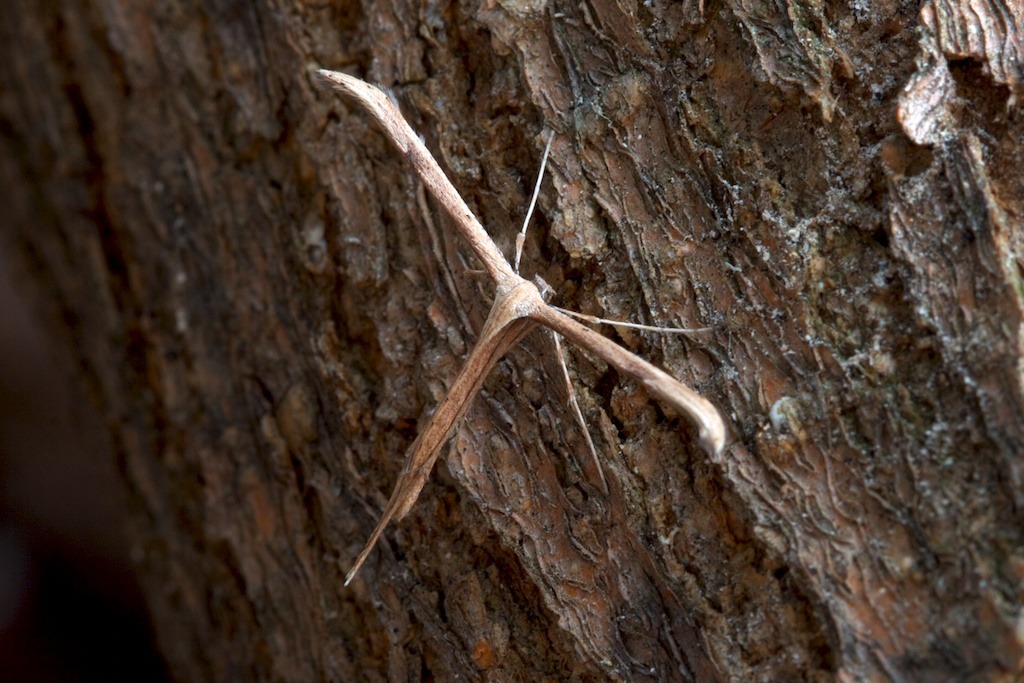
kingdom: Animalia
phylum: Arthropoda
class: Insecta
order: Lepidoptera
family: Pterophoridae
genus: Emmelina
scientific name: Emmelina monodactyla
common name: Common plume
